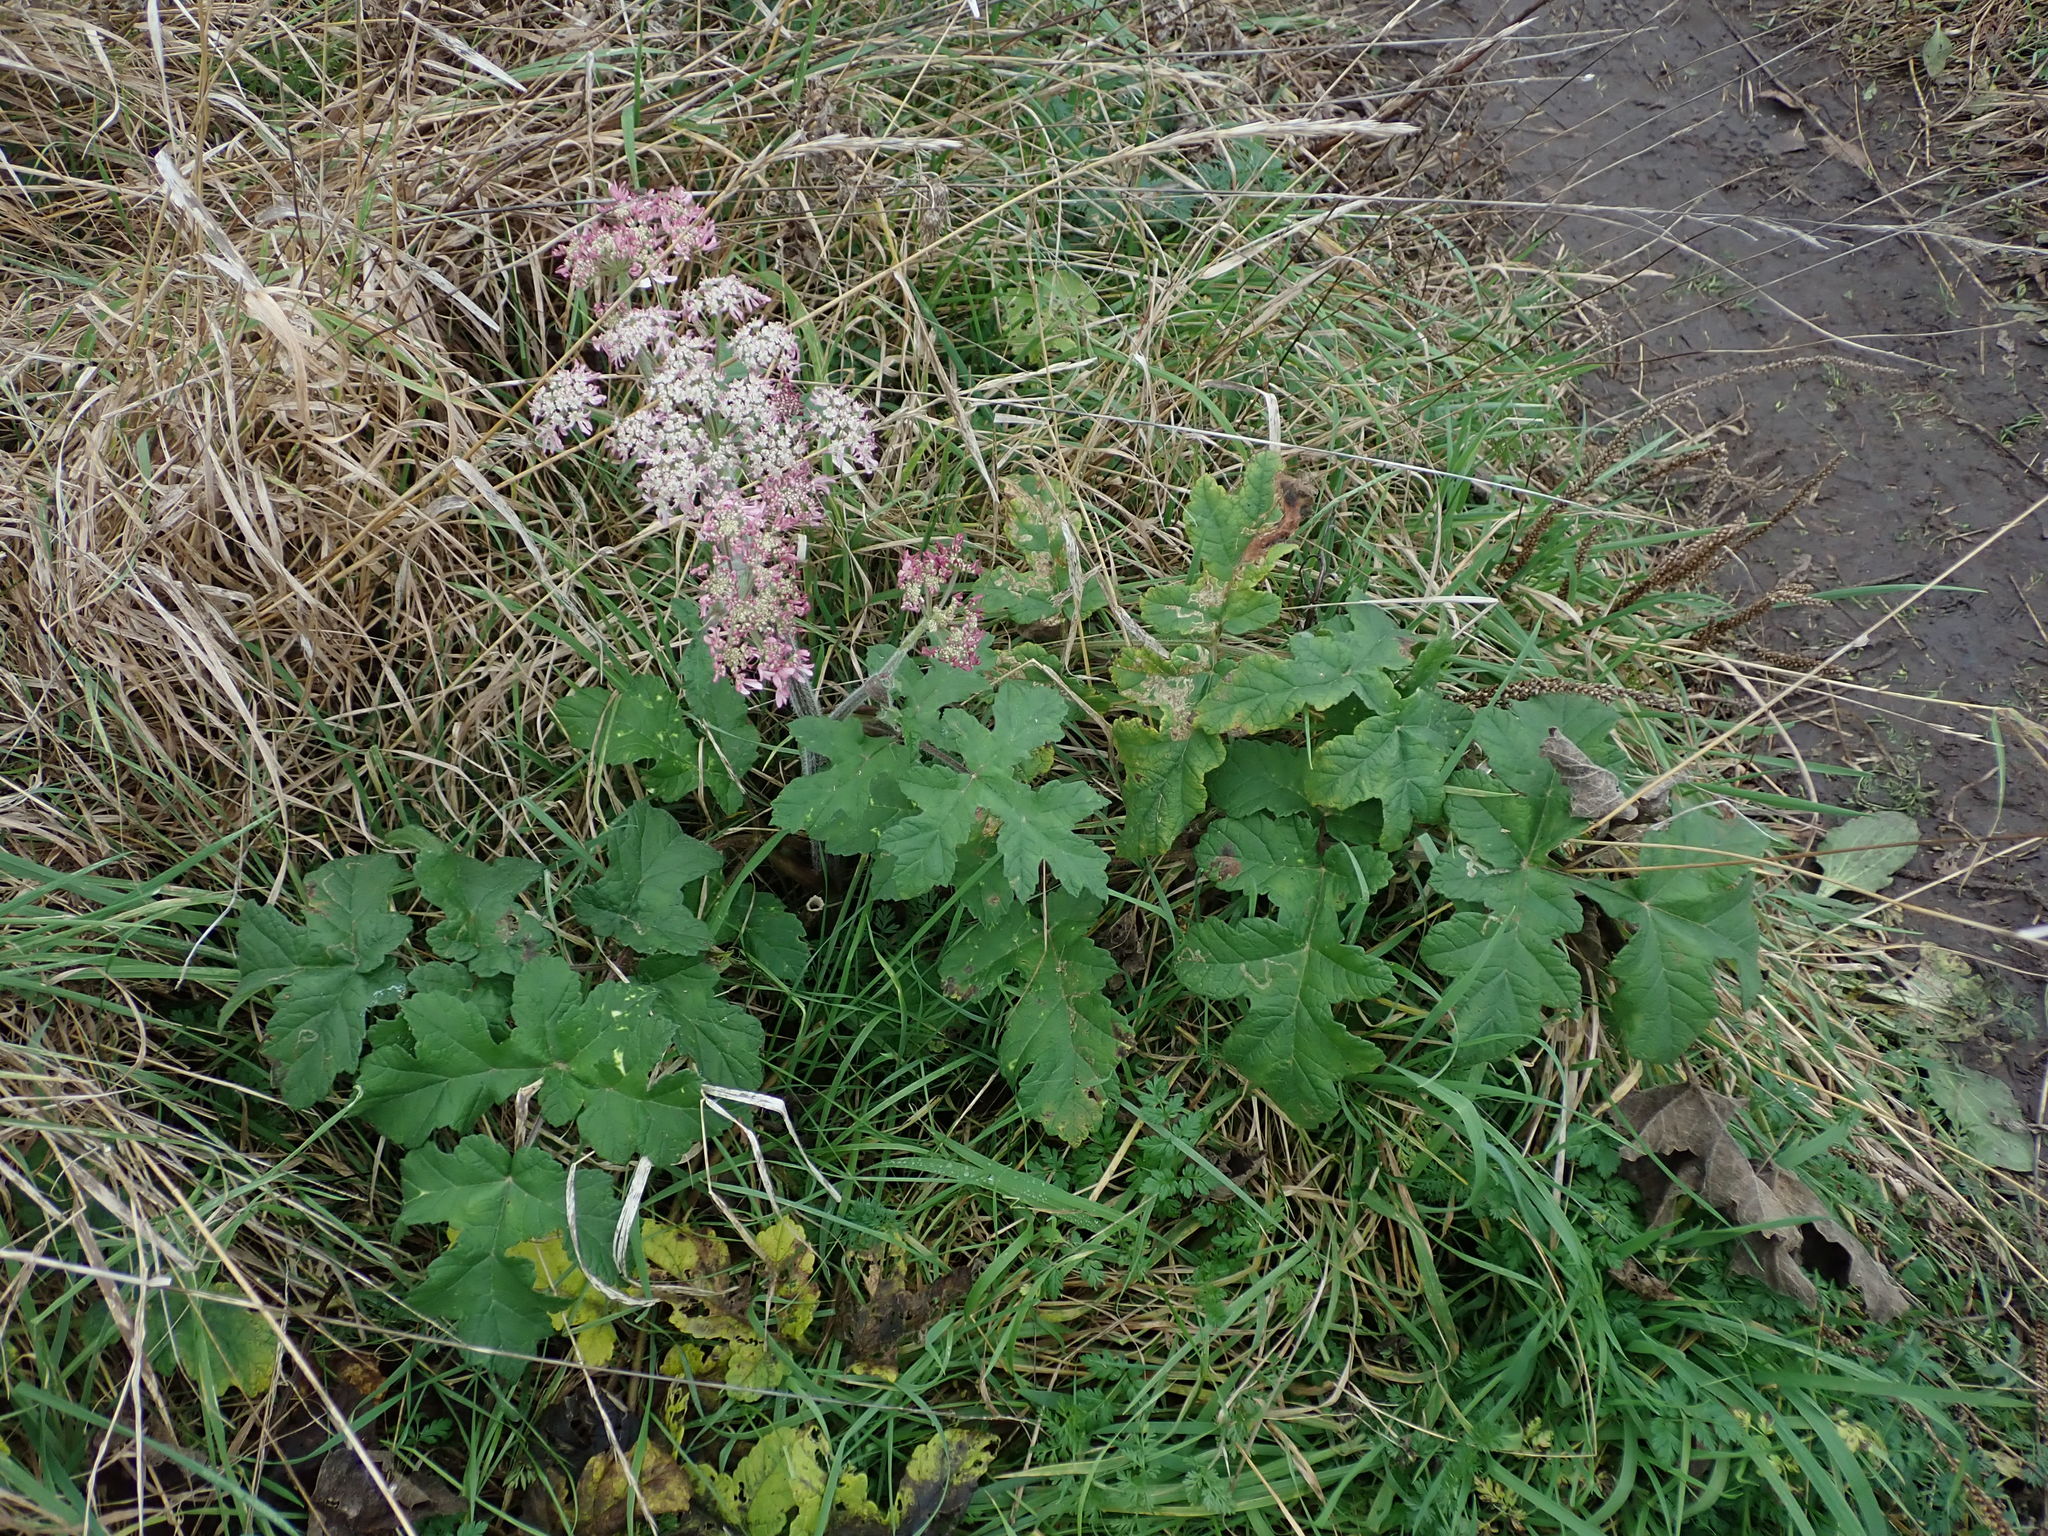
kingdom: Plantae
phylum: Tracheophyta
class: Magnoliopsida
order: Apiales
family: Apiaceae
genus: Heracleum
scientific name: Heracleum sphondylium
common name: Hogweed
